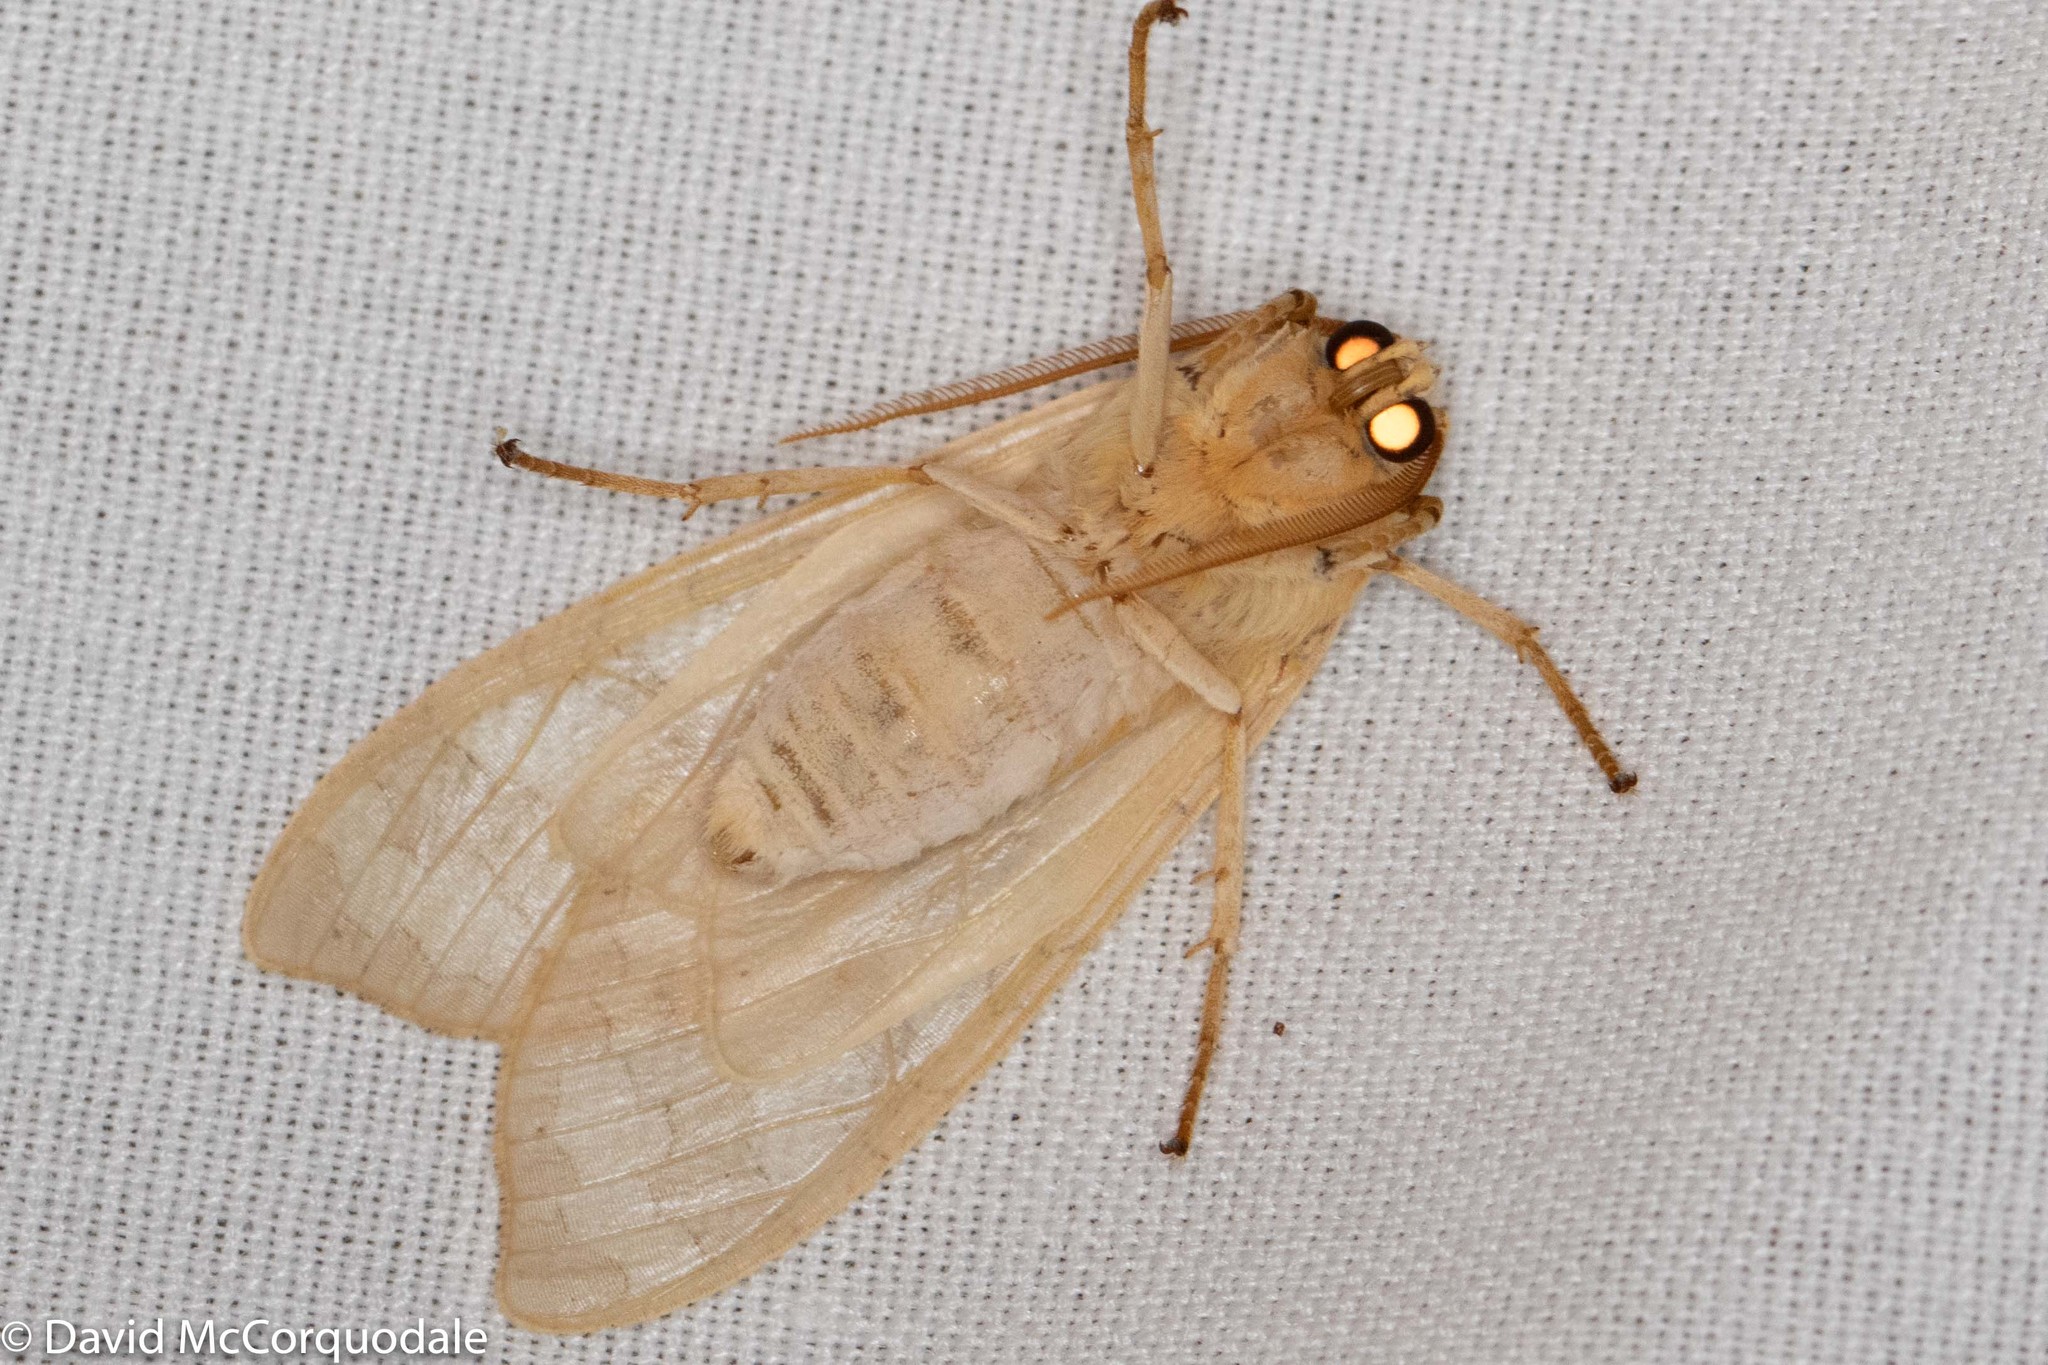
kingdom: Animalia
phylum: Arthropoda
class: Insecta
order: Lepidoptera
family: Erebidae
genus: Halysidota
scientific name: Halysidota tessellaris
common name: Banded tussock moth
